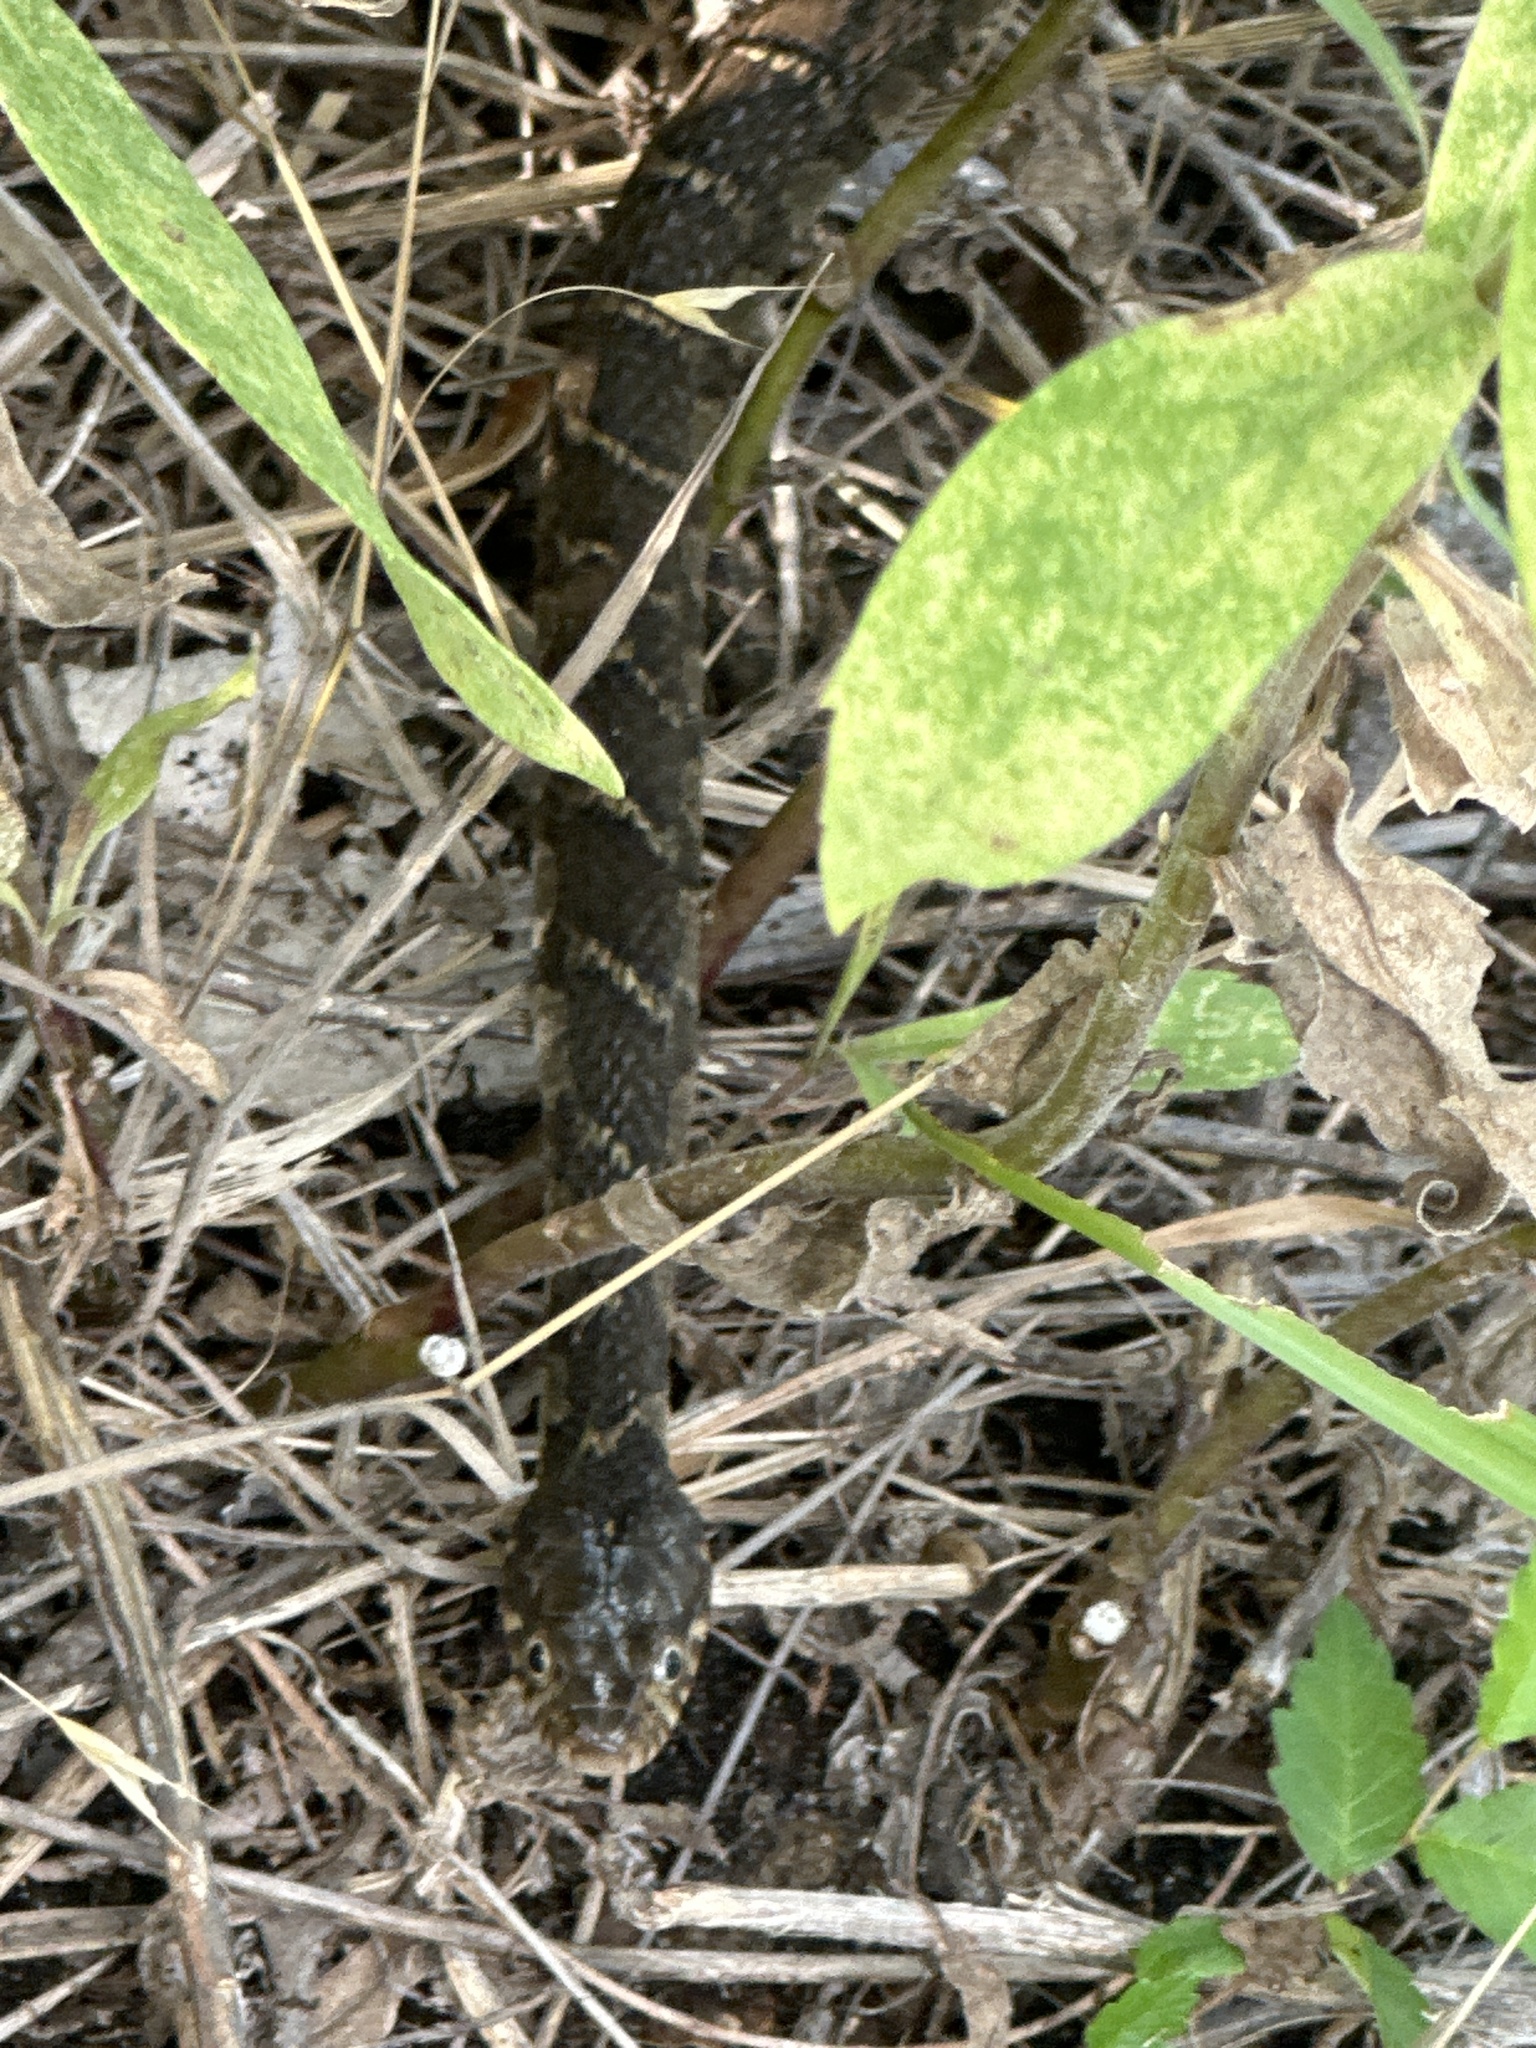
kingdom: Animalia
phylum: Chordata
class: Squamata
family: Colubridae
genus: Nerodia
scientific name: Nerodia erythrogaster
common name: Plainbelly water snake
